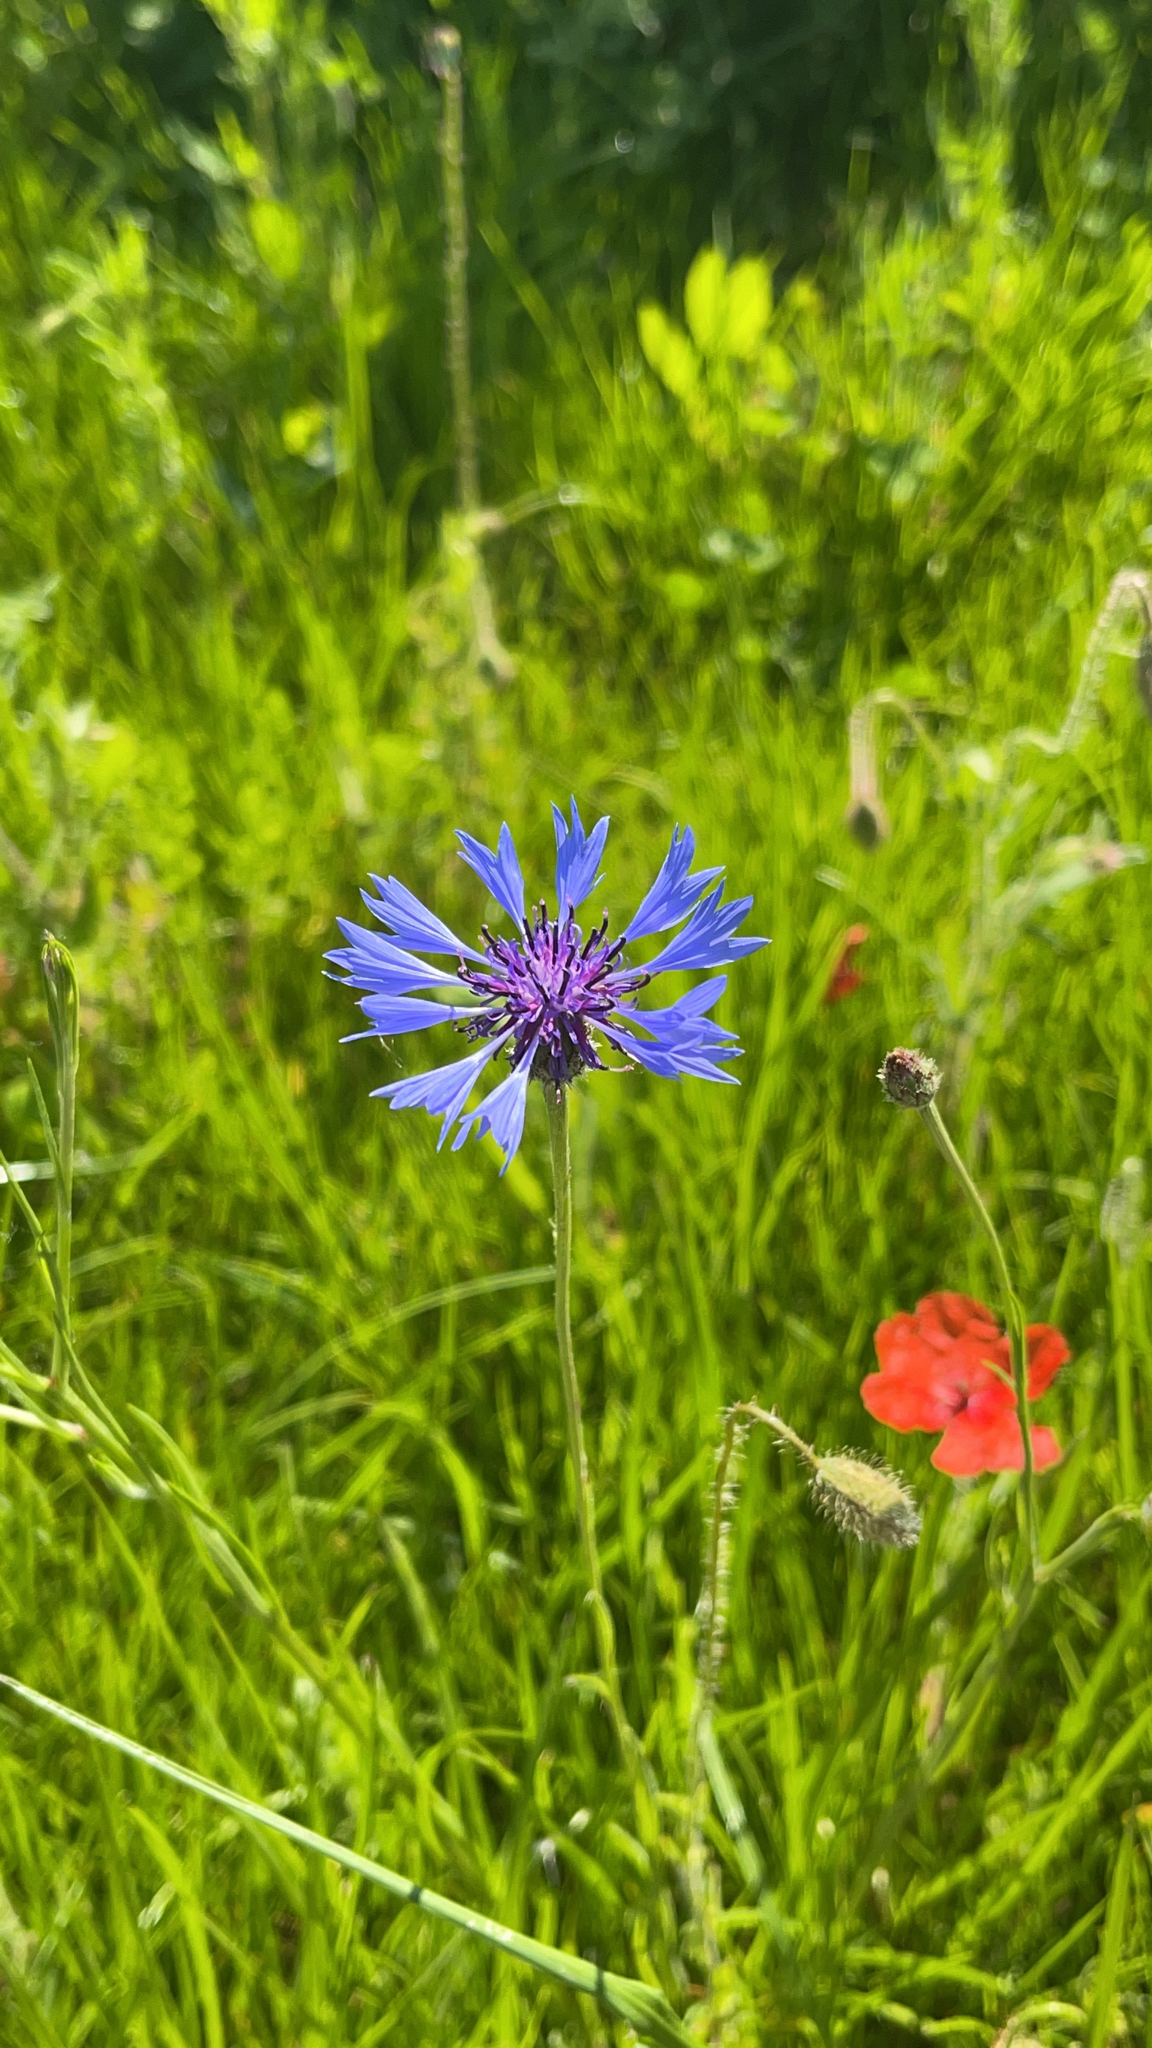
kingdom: Plantae
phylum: Tracheophyta
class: Magnoliopsida
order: Asterales
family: Asteraceae
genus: Centaurea
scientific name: Centaurea cyanus
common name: Cornflower
